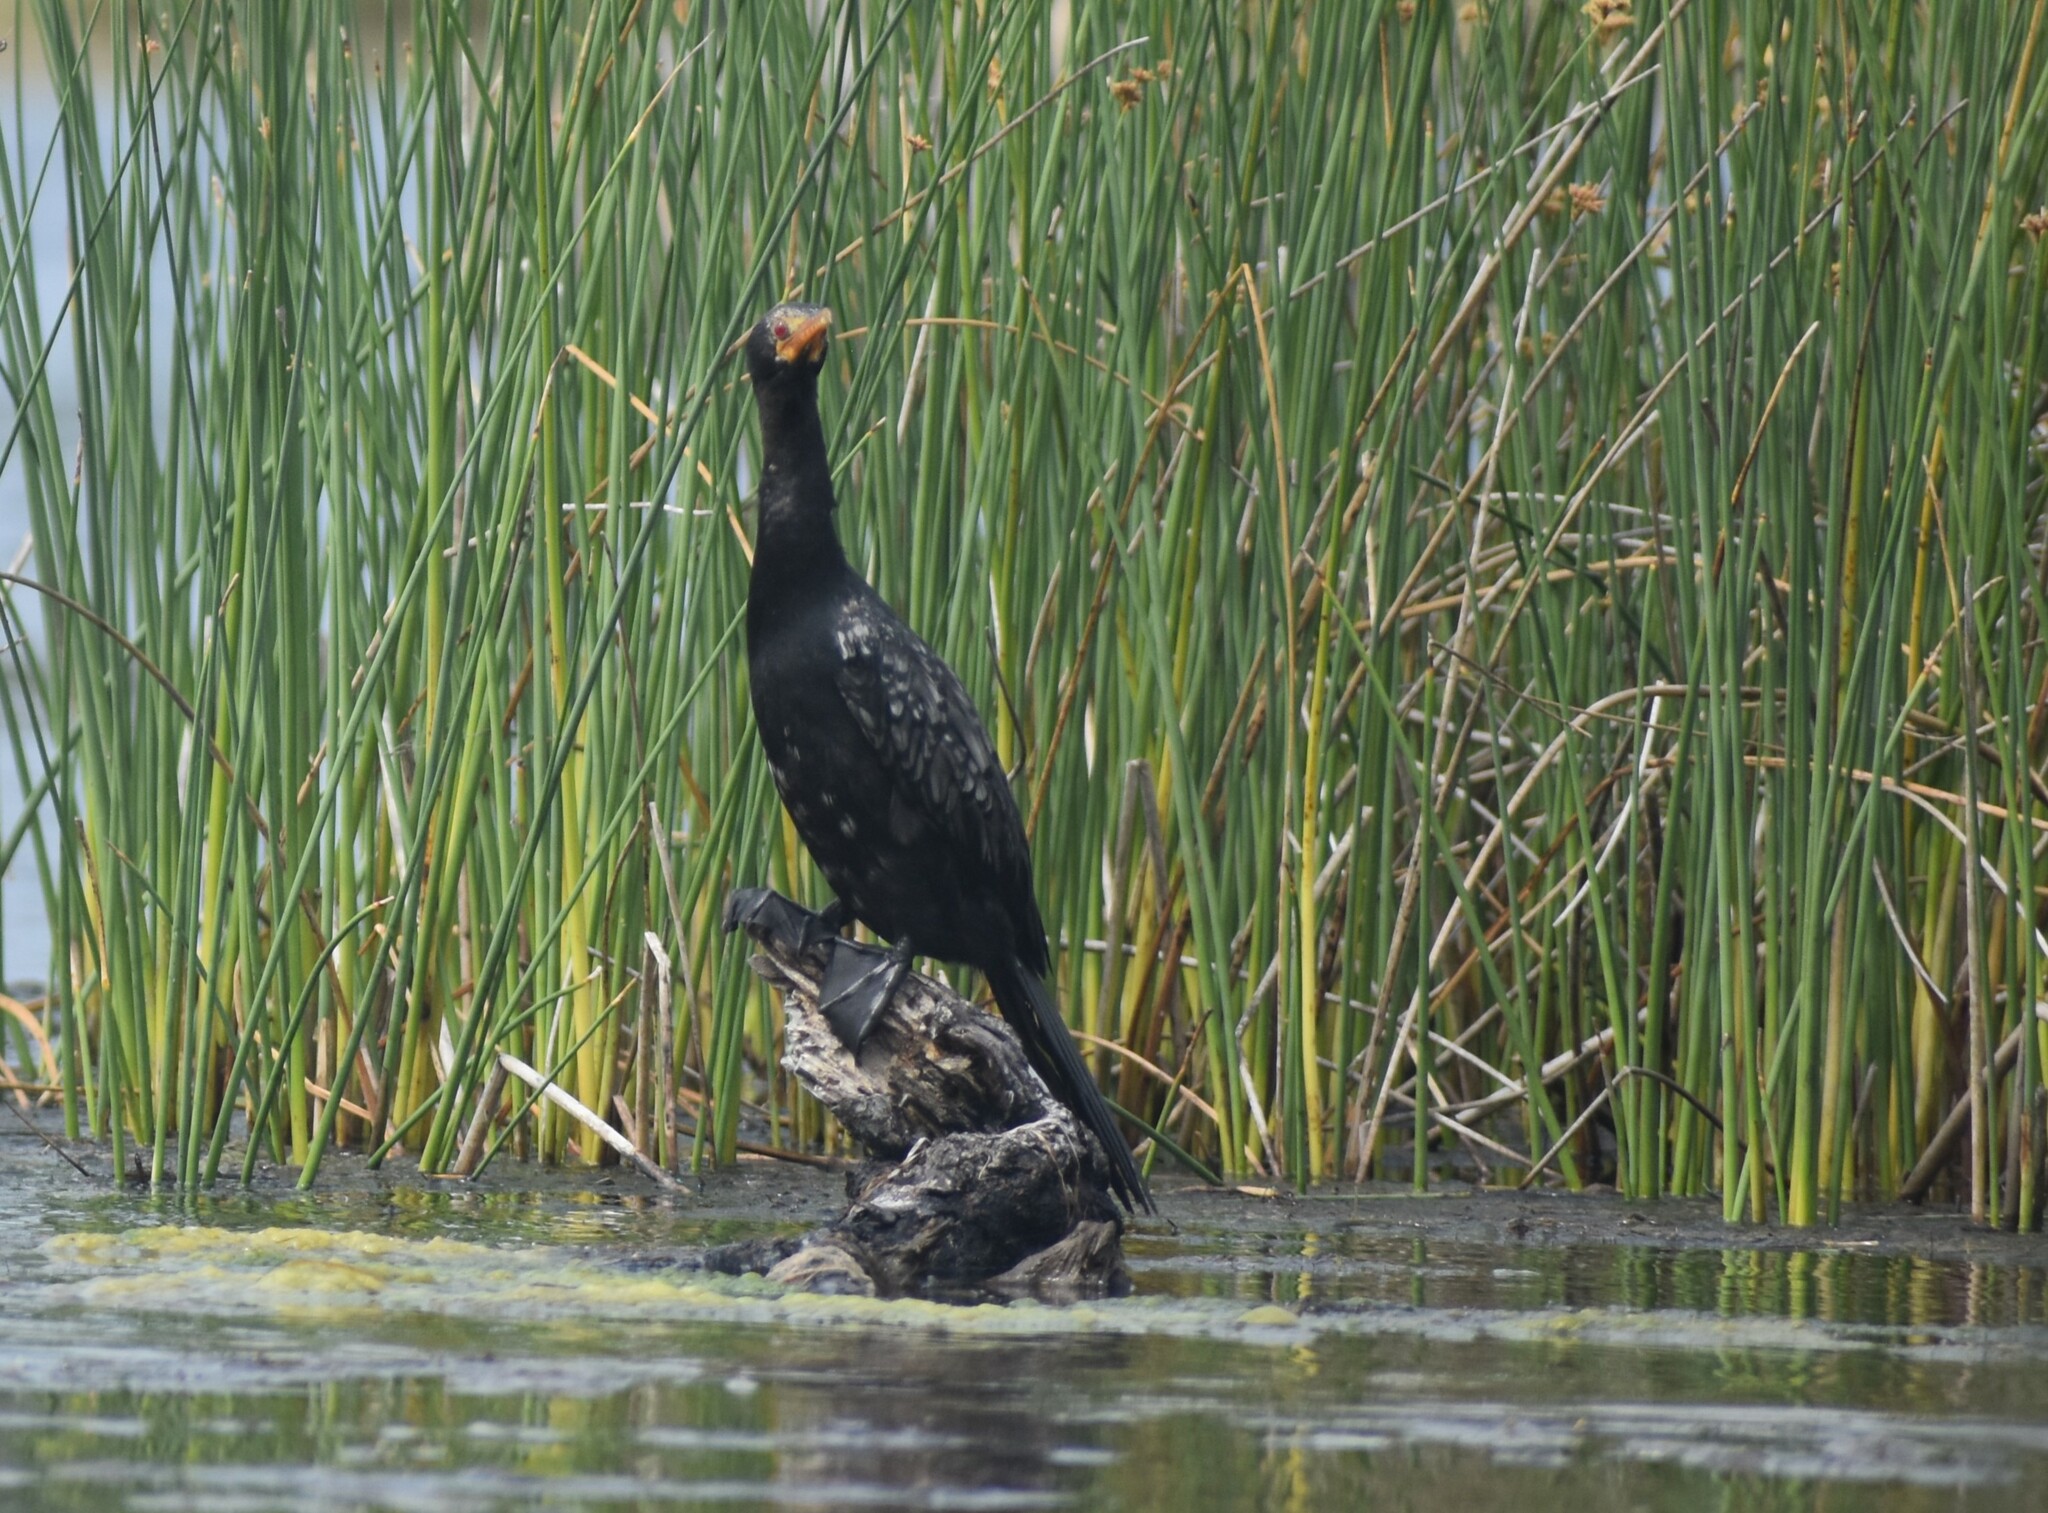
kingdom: Animalia
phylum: Chordata
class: Aves
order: Suliformes
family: Phalacrocoracidae
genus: Microcarbo
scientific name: Microcarbo africanus
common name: Long-tailed cormorant
